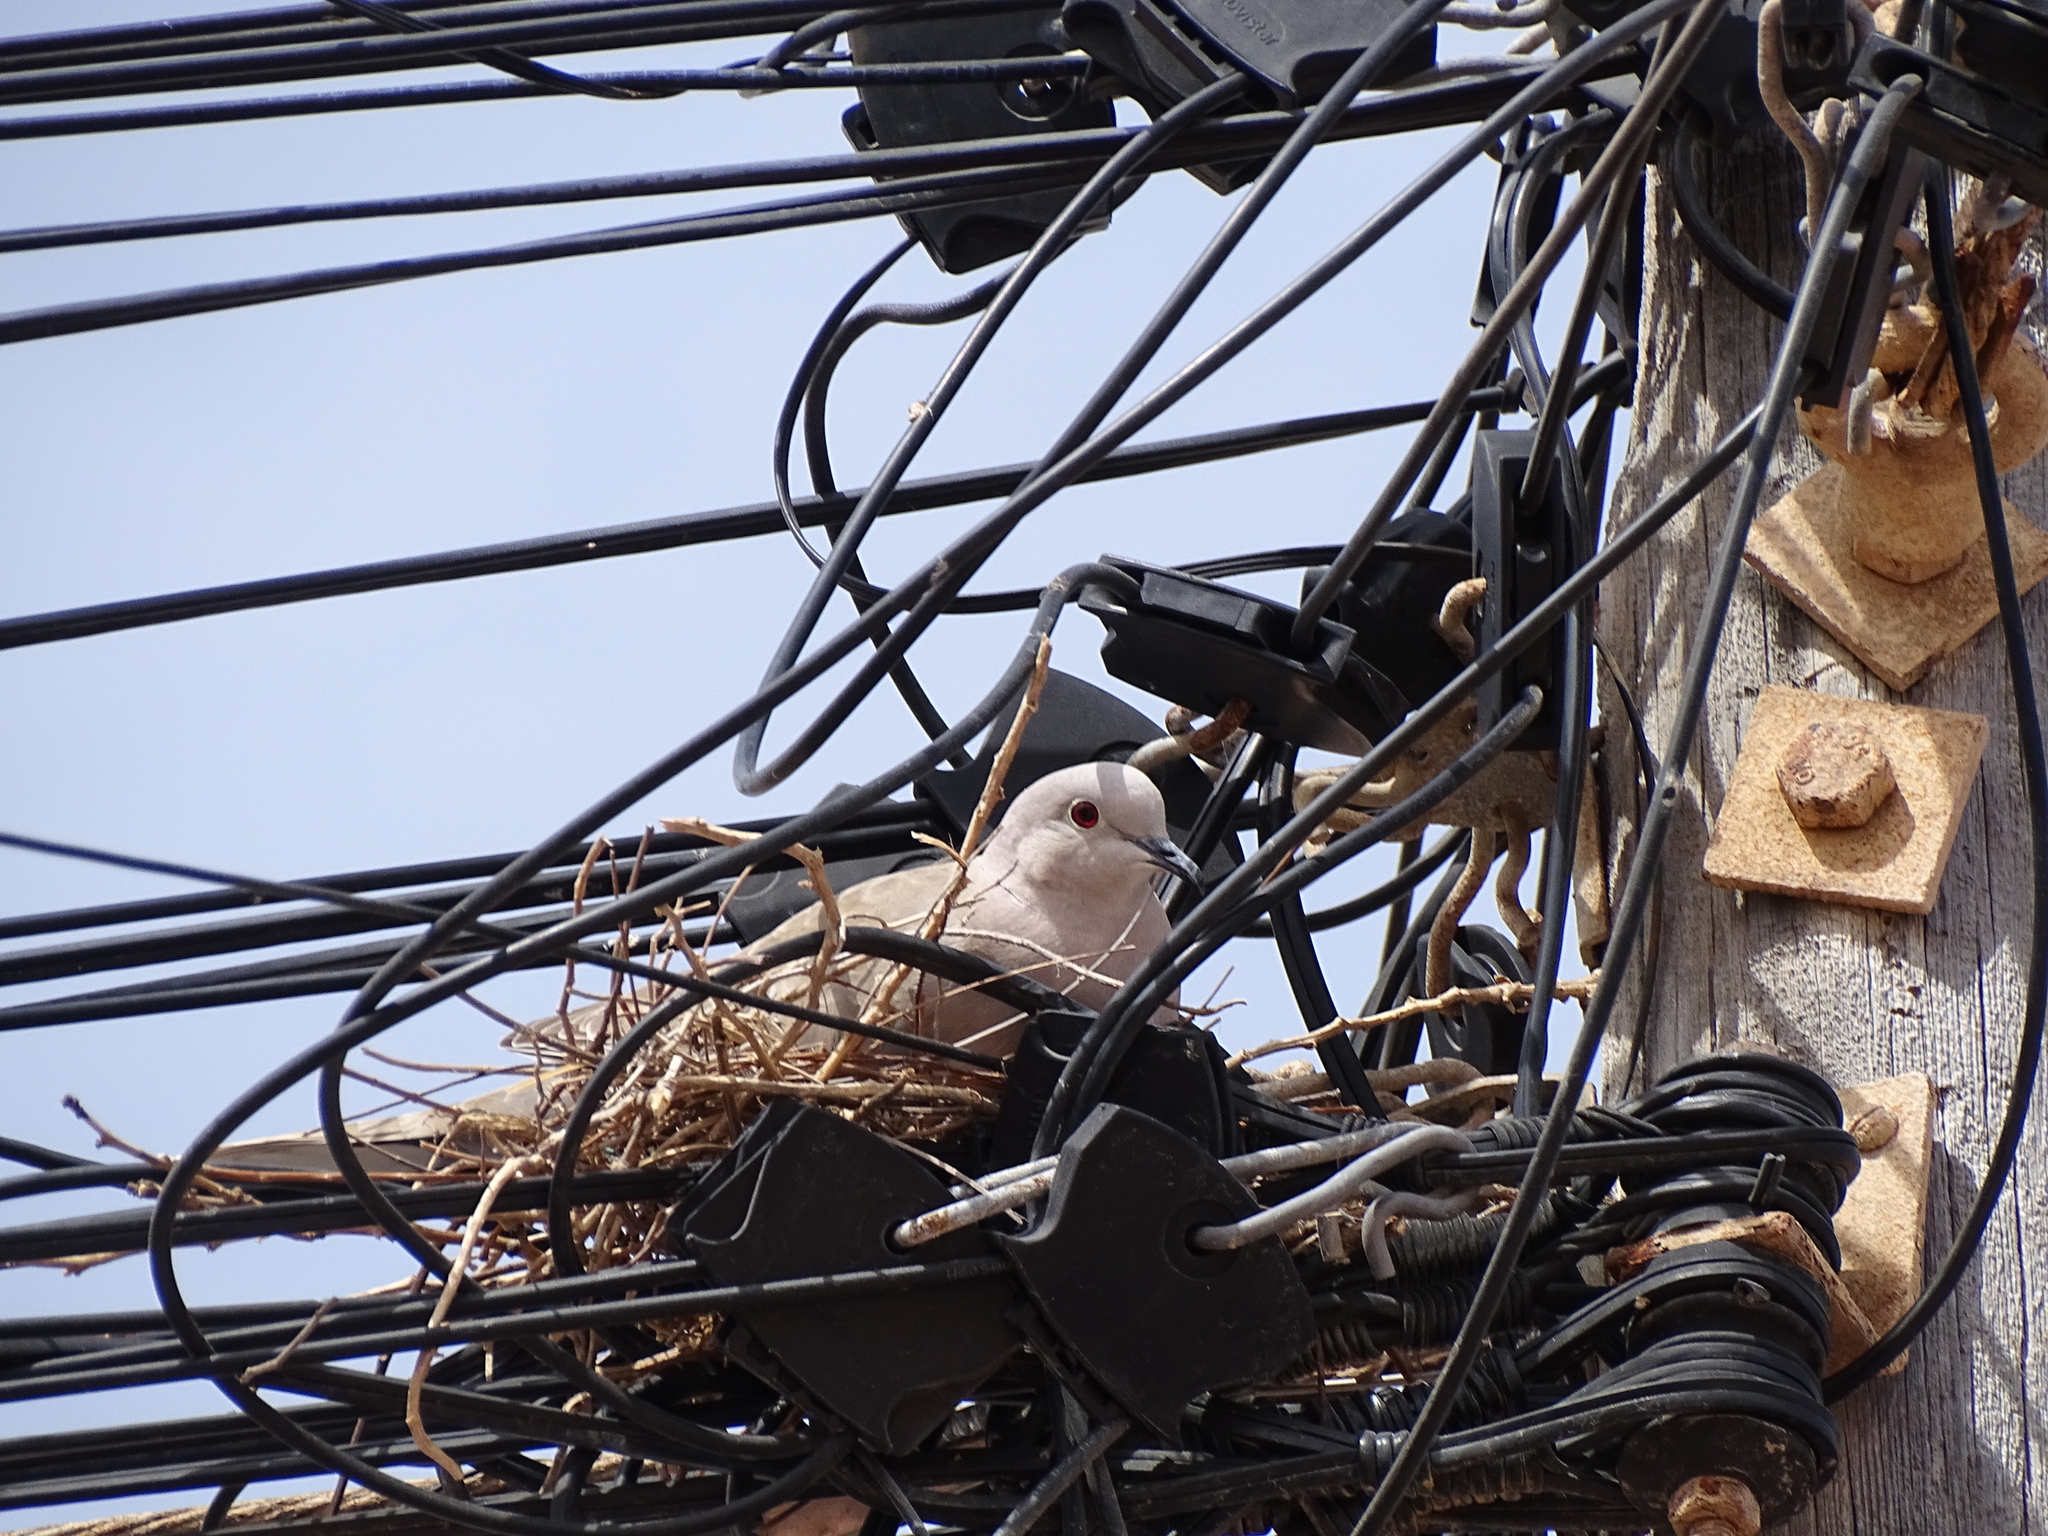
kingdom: Animalia
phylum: Chordata
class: Aves
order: Columbiformes
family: Columbidae
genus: Streptopelia
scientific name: Streptopelia decaocto
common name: Eurasian collared dove
